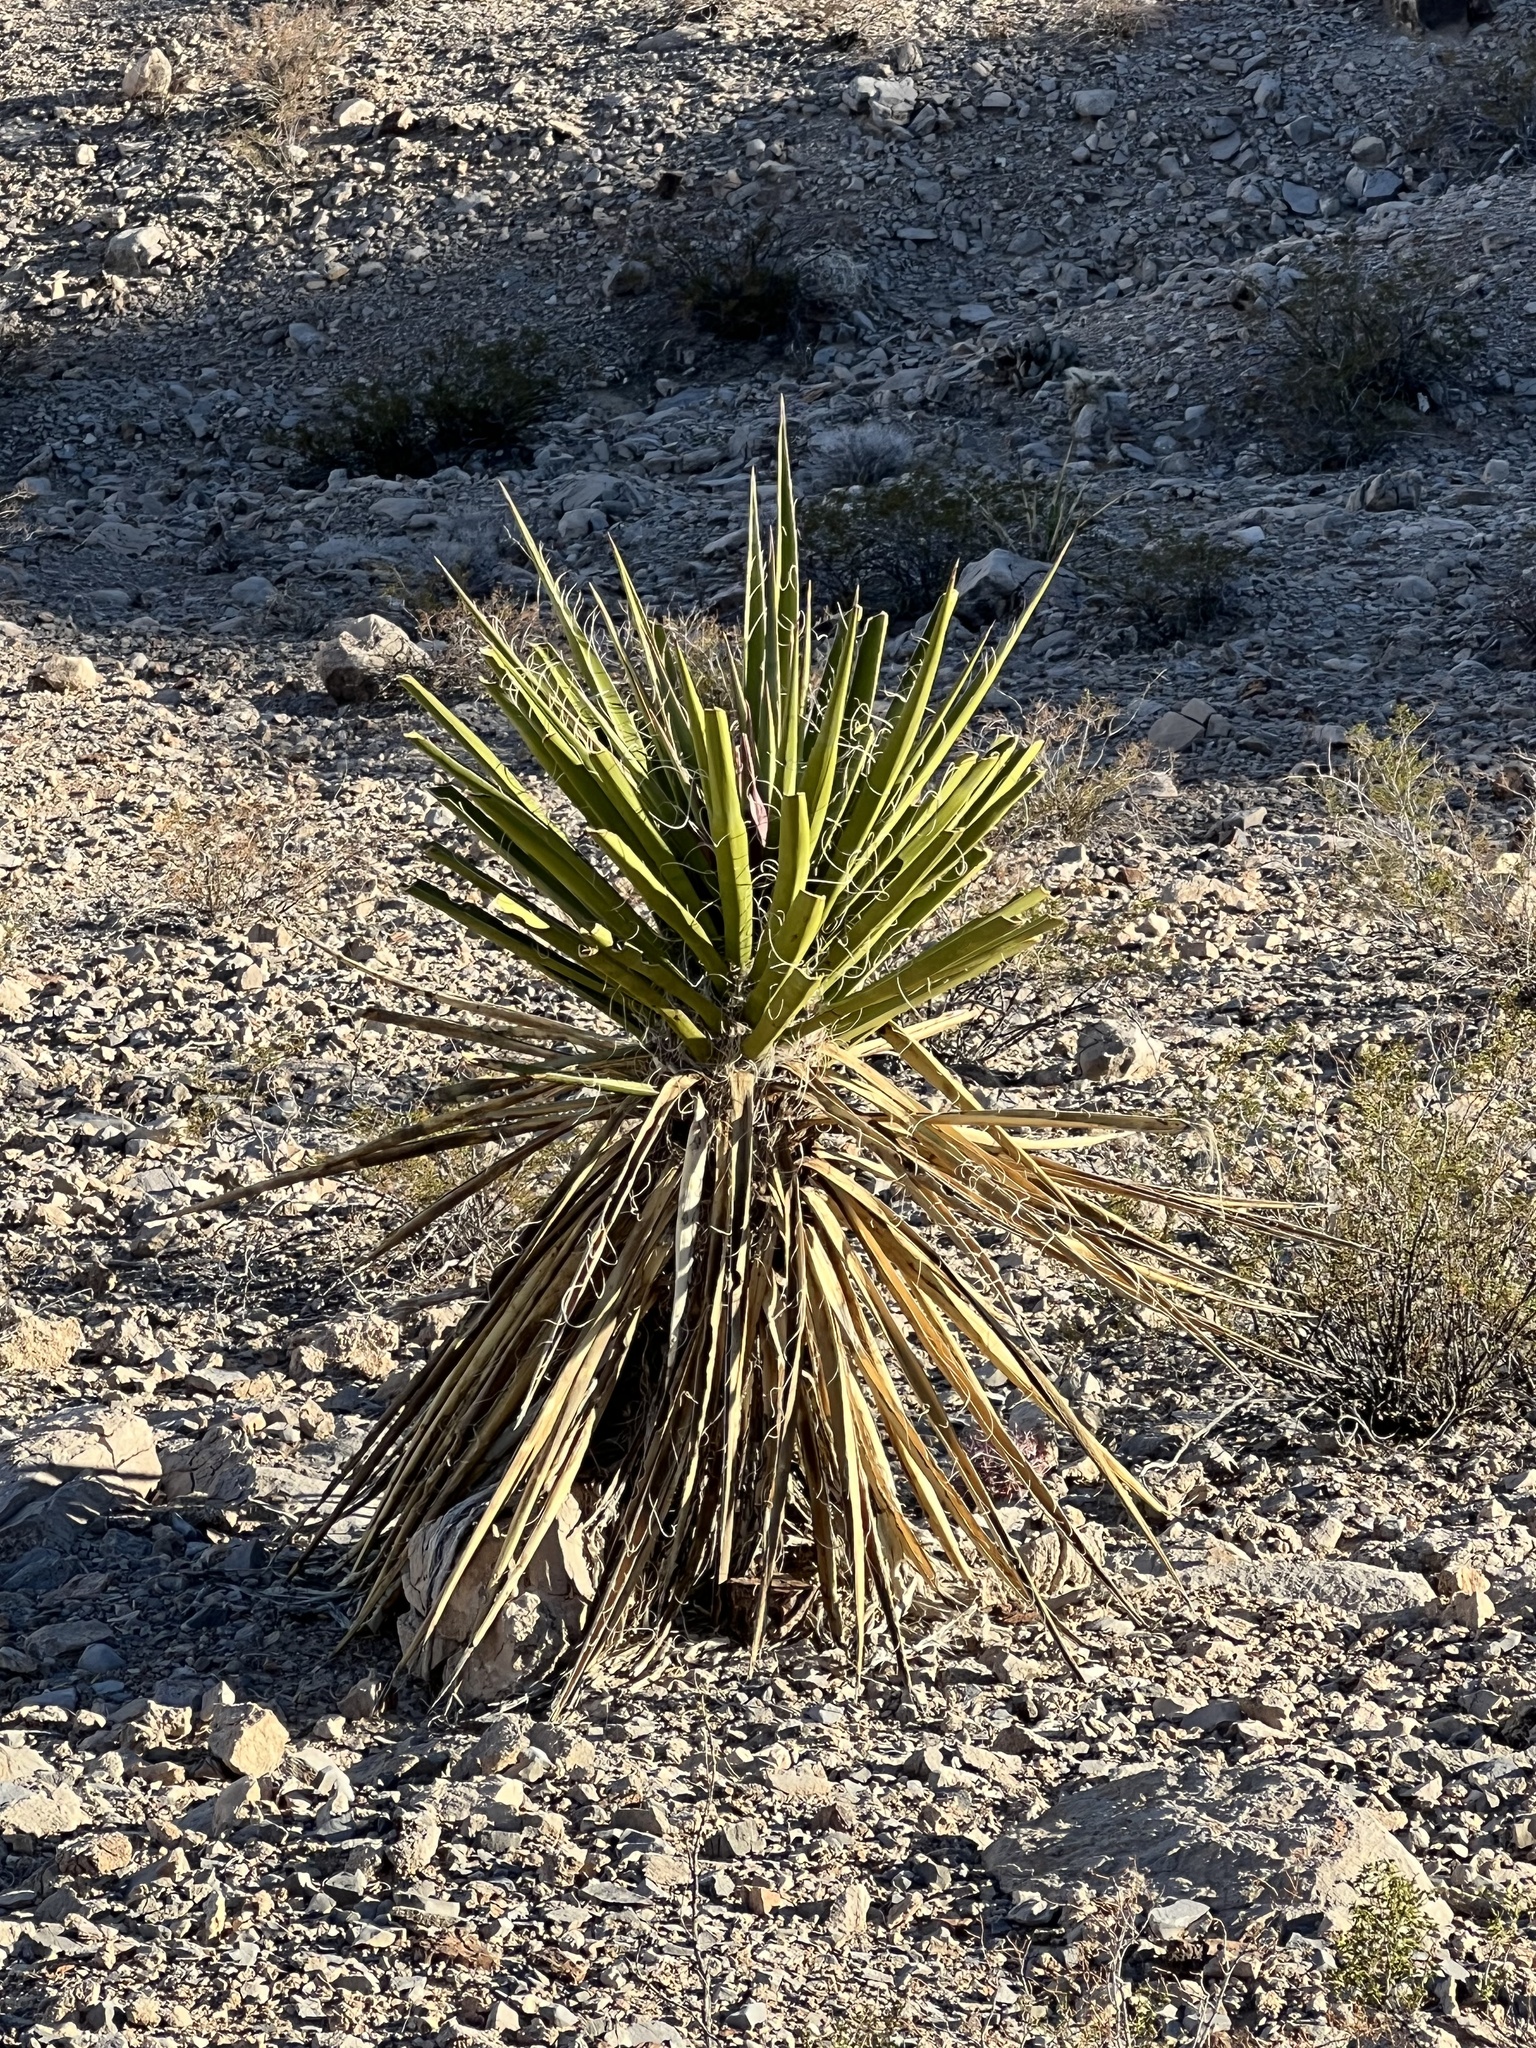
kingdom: Plantae
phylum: Tracheophyta
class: Liliopsida
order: Asparagales
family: Asparagaceae
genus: Yucca
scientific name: Yucca schidigera
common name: Mojave yucca
